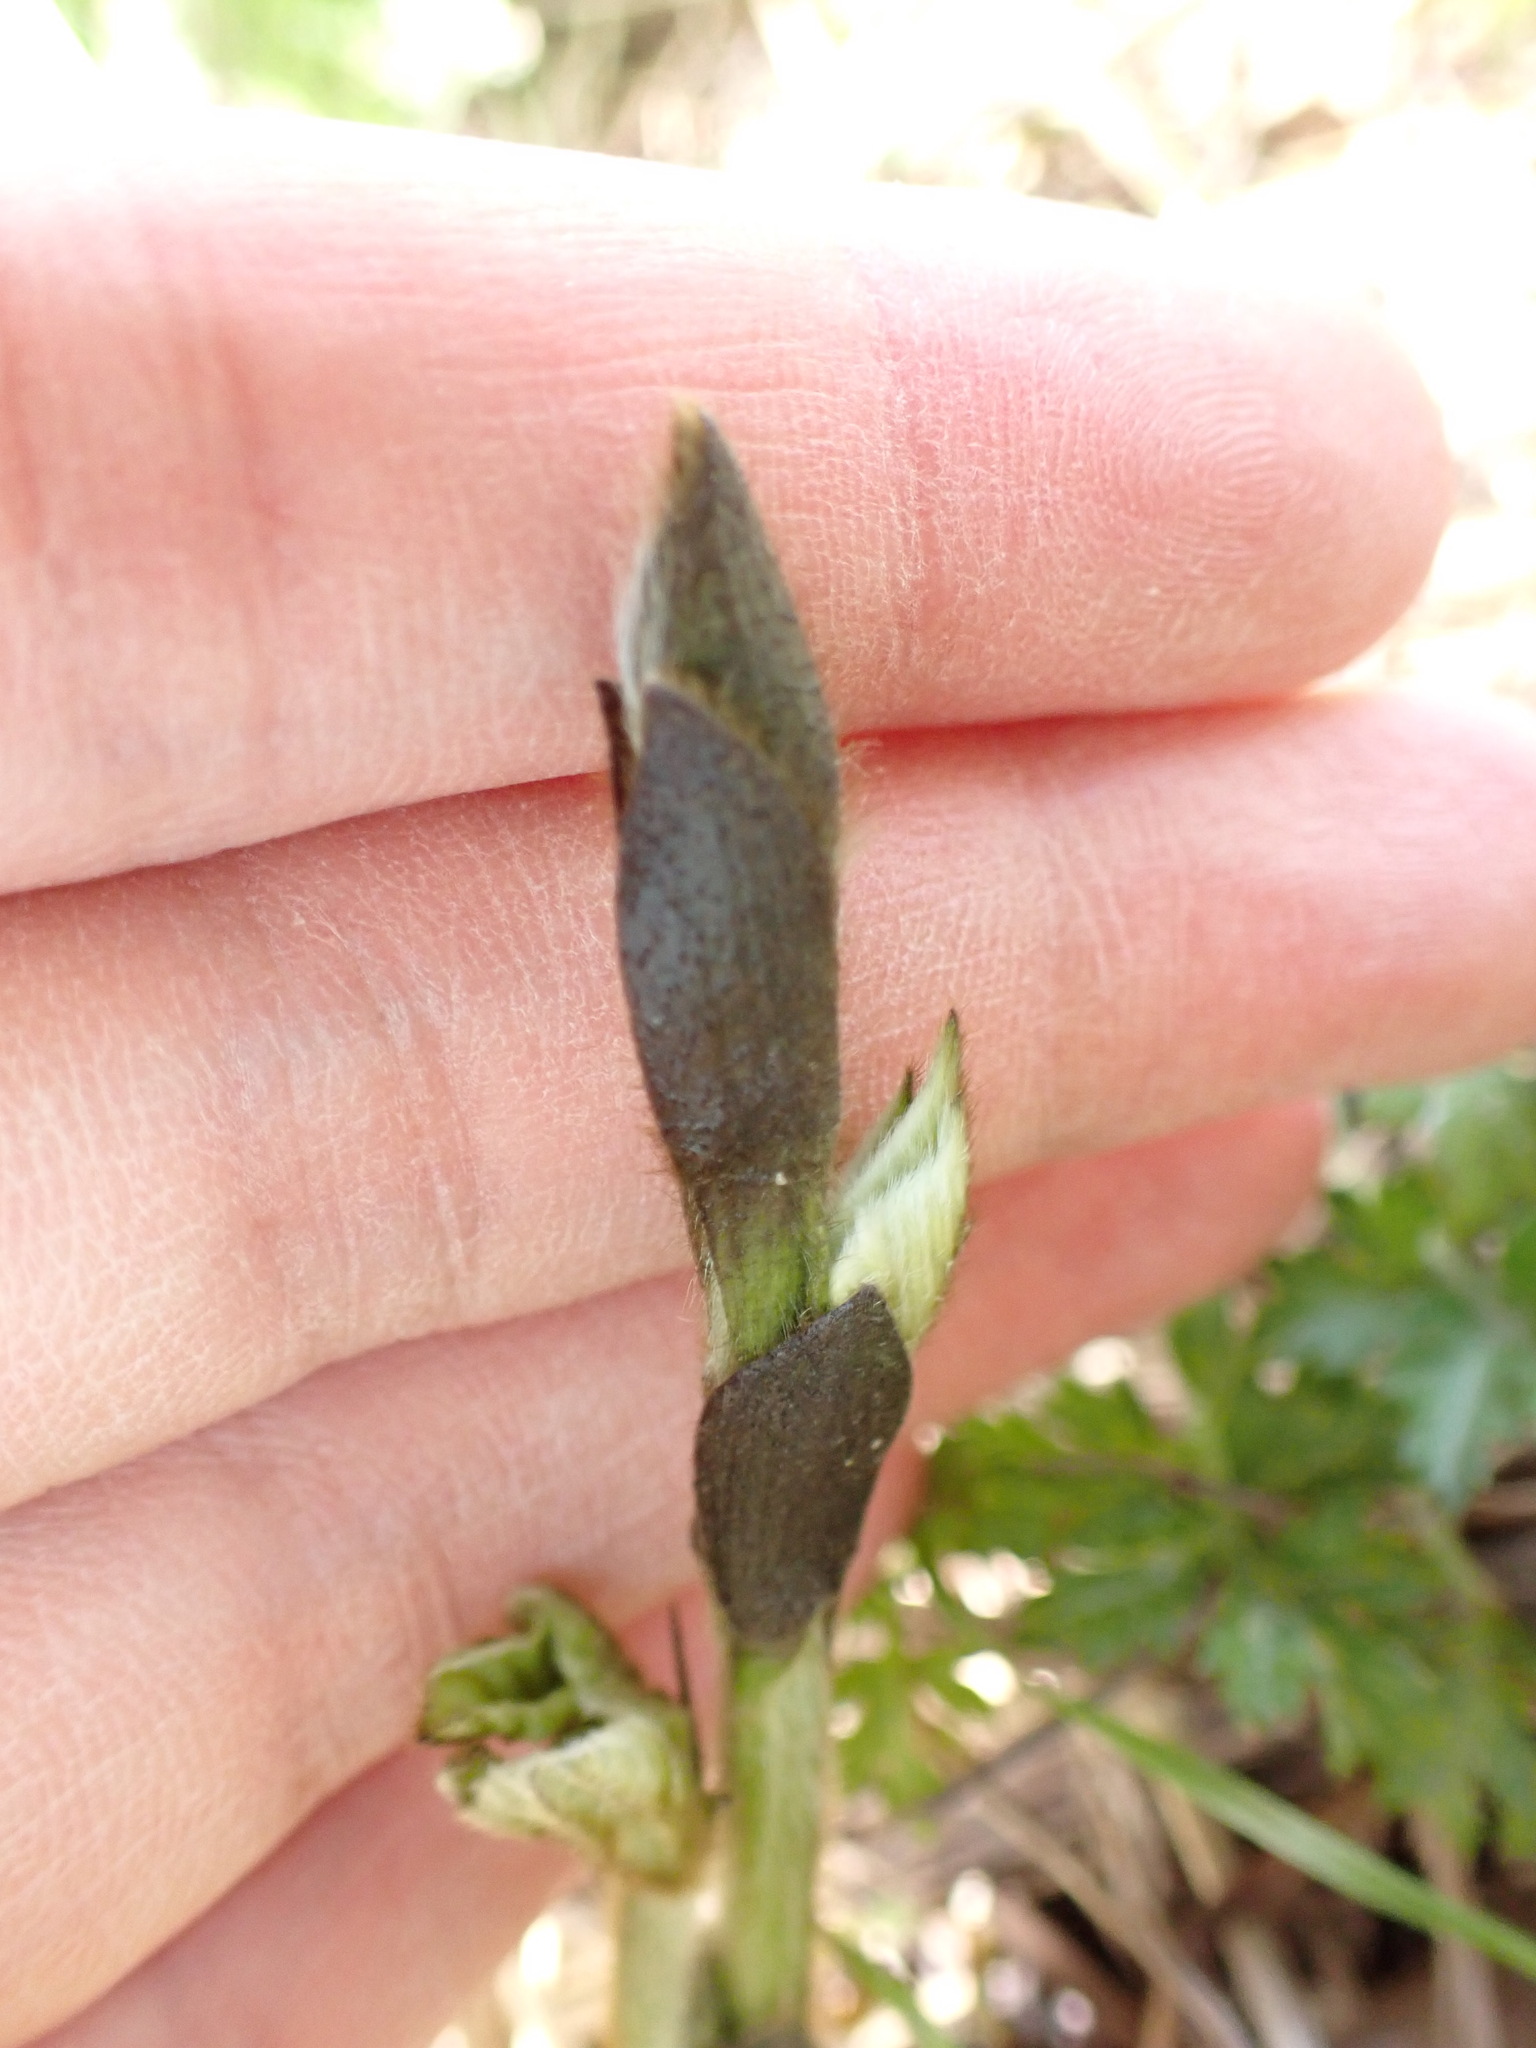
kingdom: Plantae
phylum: Tracheophyta
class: Magnoliopsida
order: Fabales
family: Fabaceae
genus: Pueraria
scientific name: Pueraria montana
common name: Kudzu
